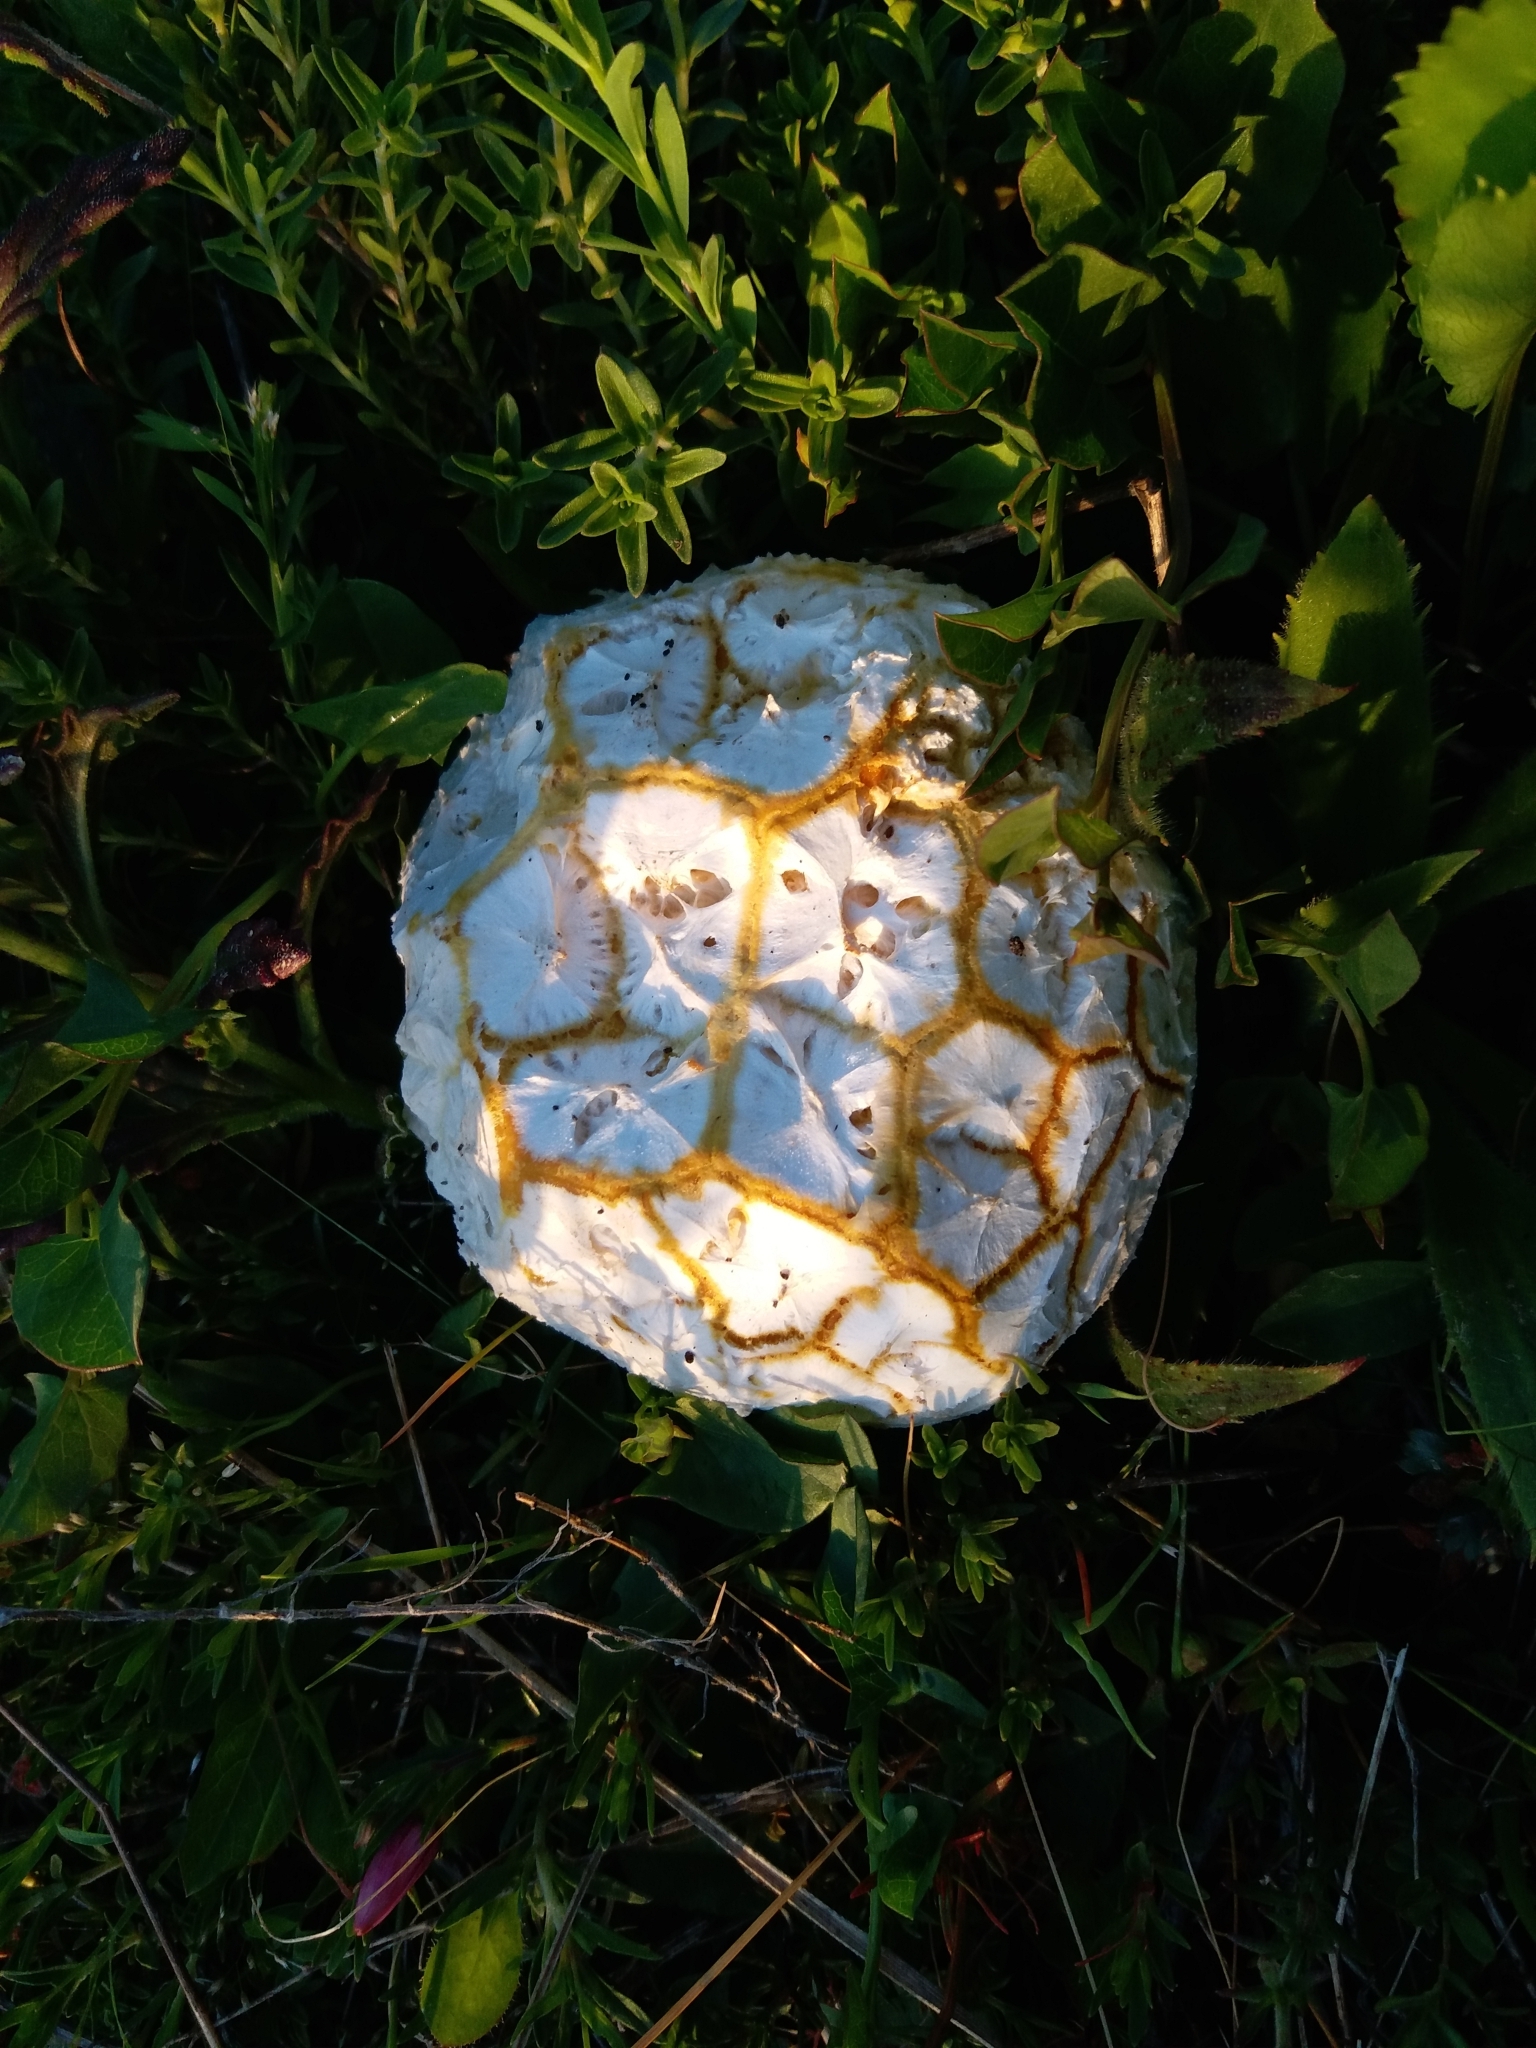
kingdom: Fungi
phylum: Basidiomycota
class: Agaricomycetes
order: Agaricales
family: Agaricaceae
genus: Mycenastrum
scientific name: Mycenastrum corium
